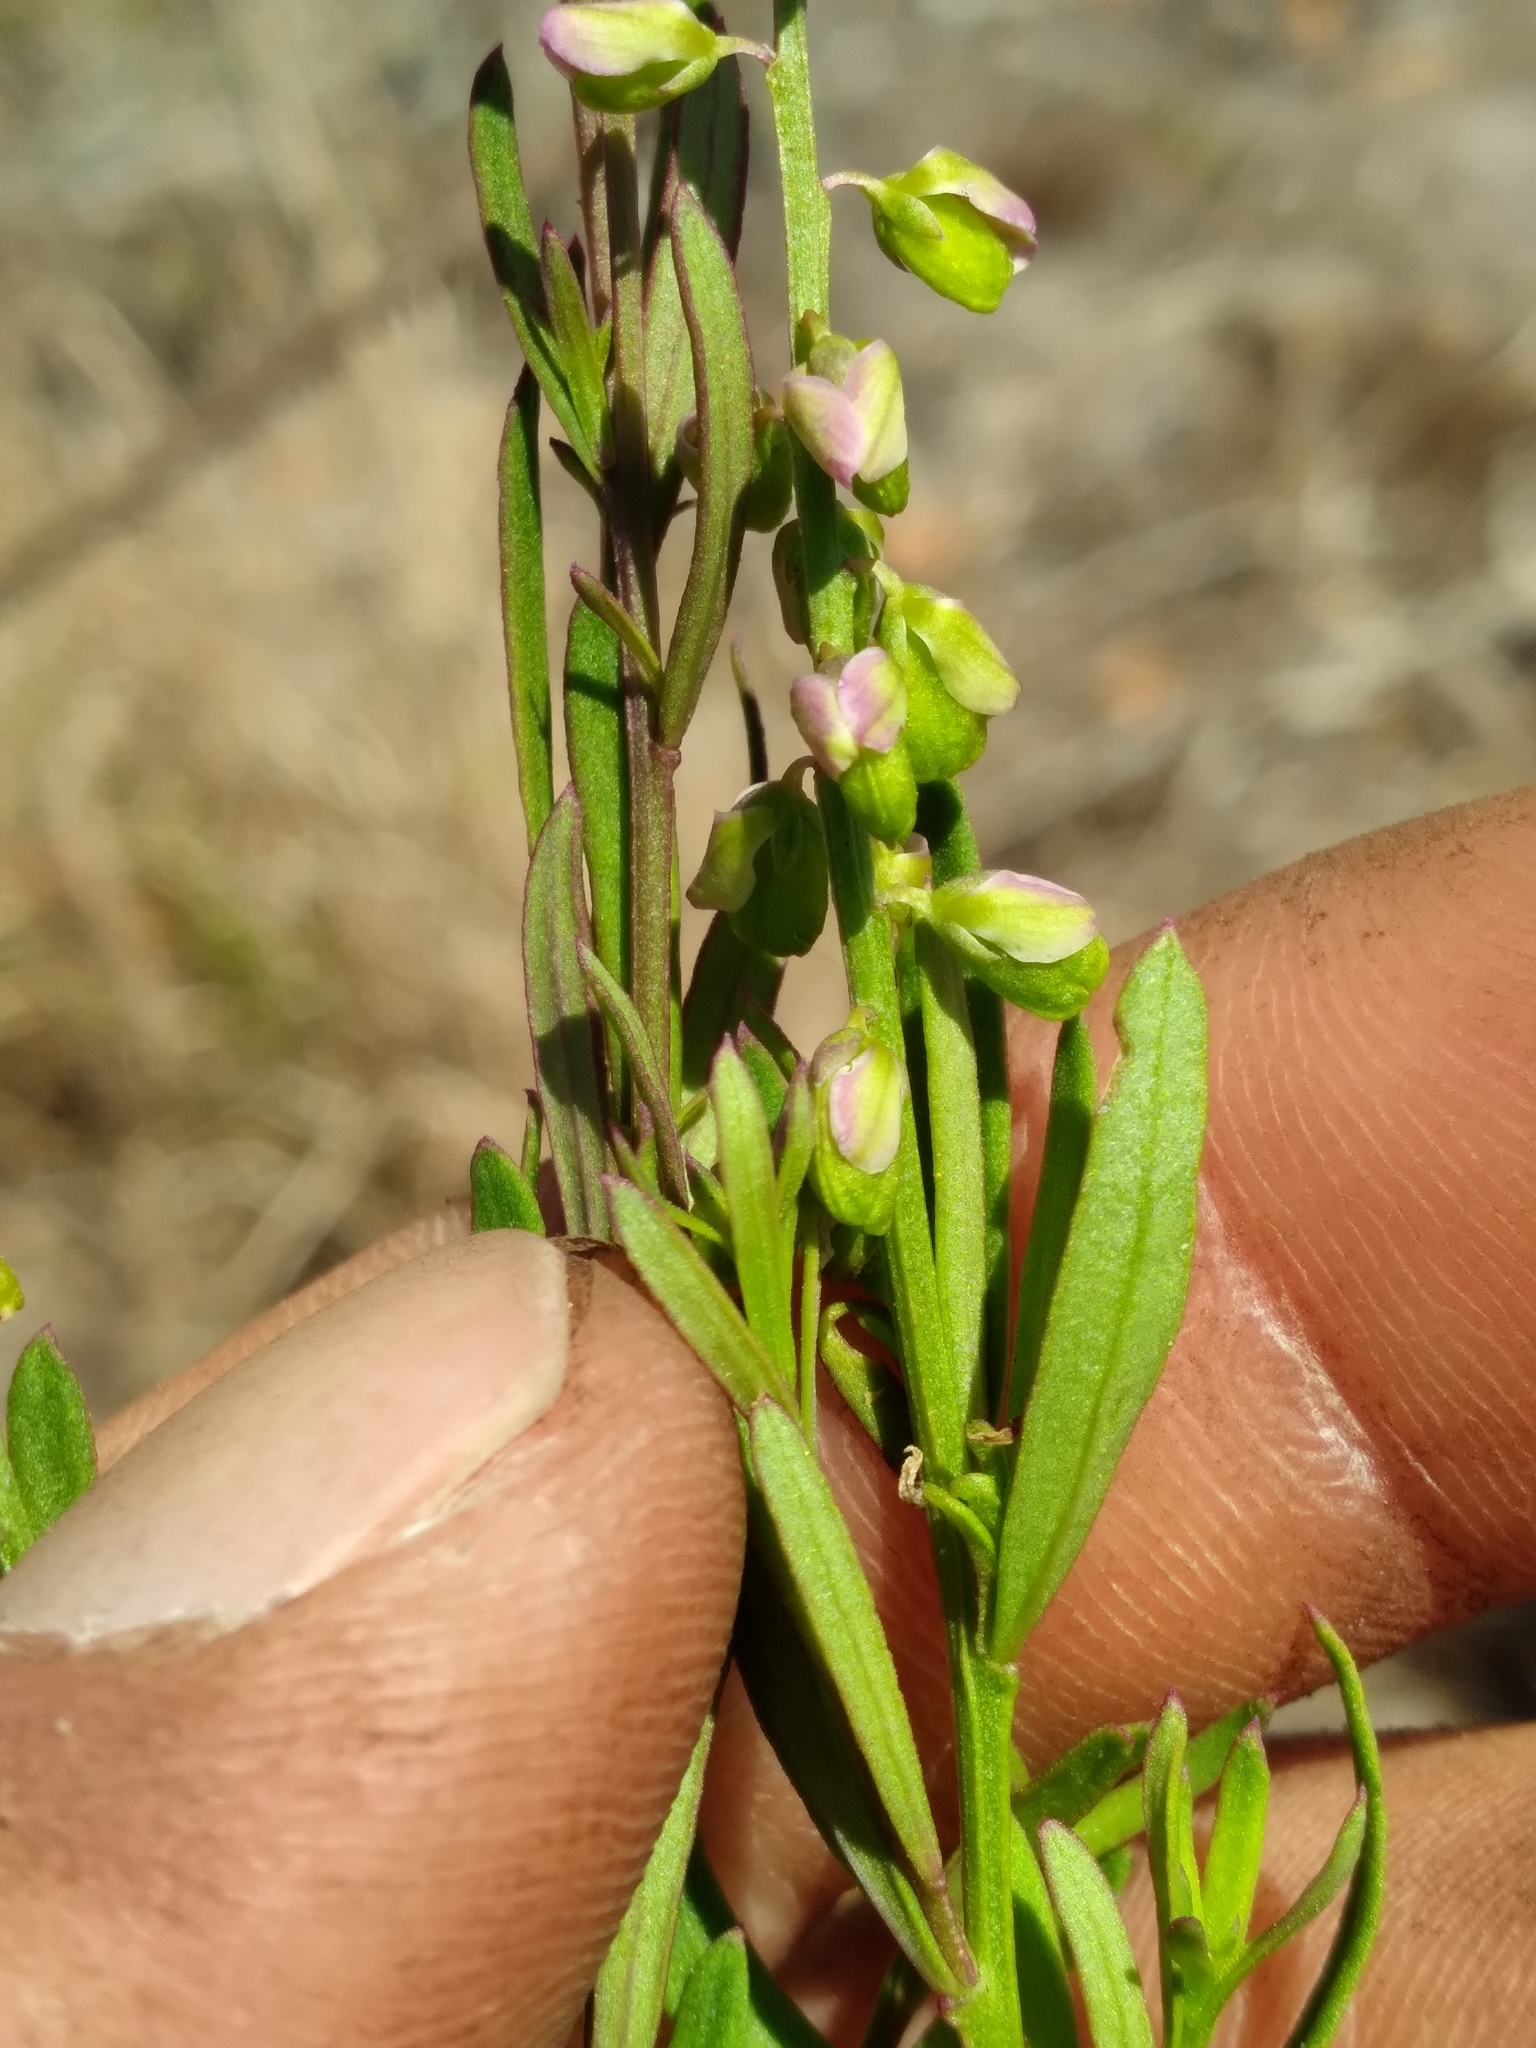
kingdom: Plantae
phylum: Tracheophyta
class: Magnoliopsida
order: Fabales
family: Polygalaceae
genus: Polygala
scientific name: Polygala polygama
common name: Bitter milkwort
